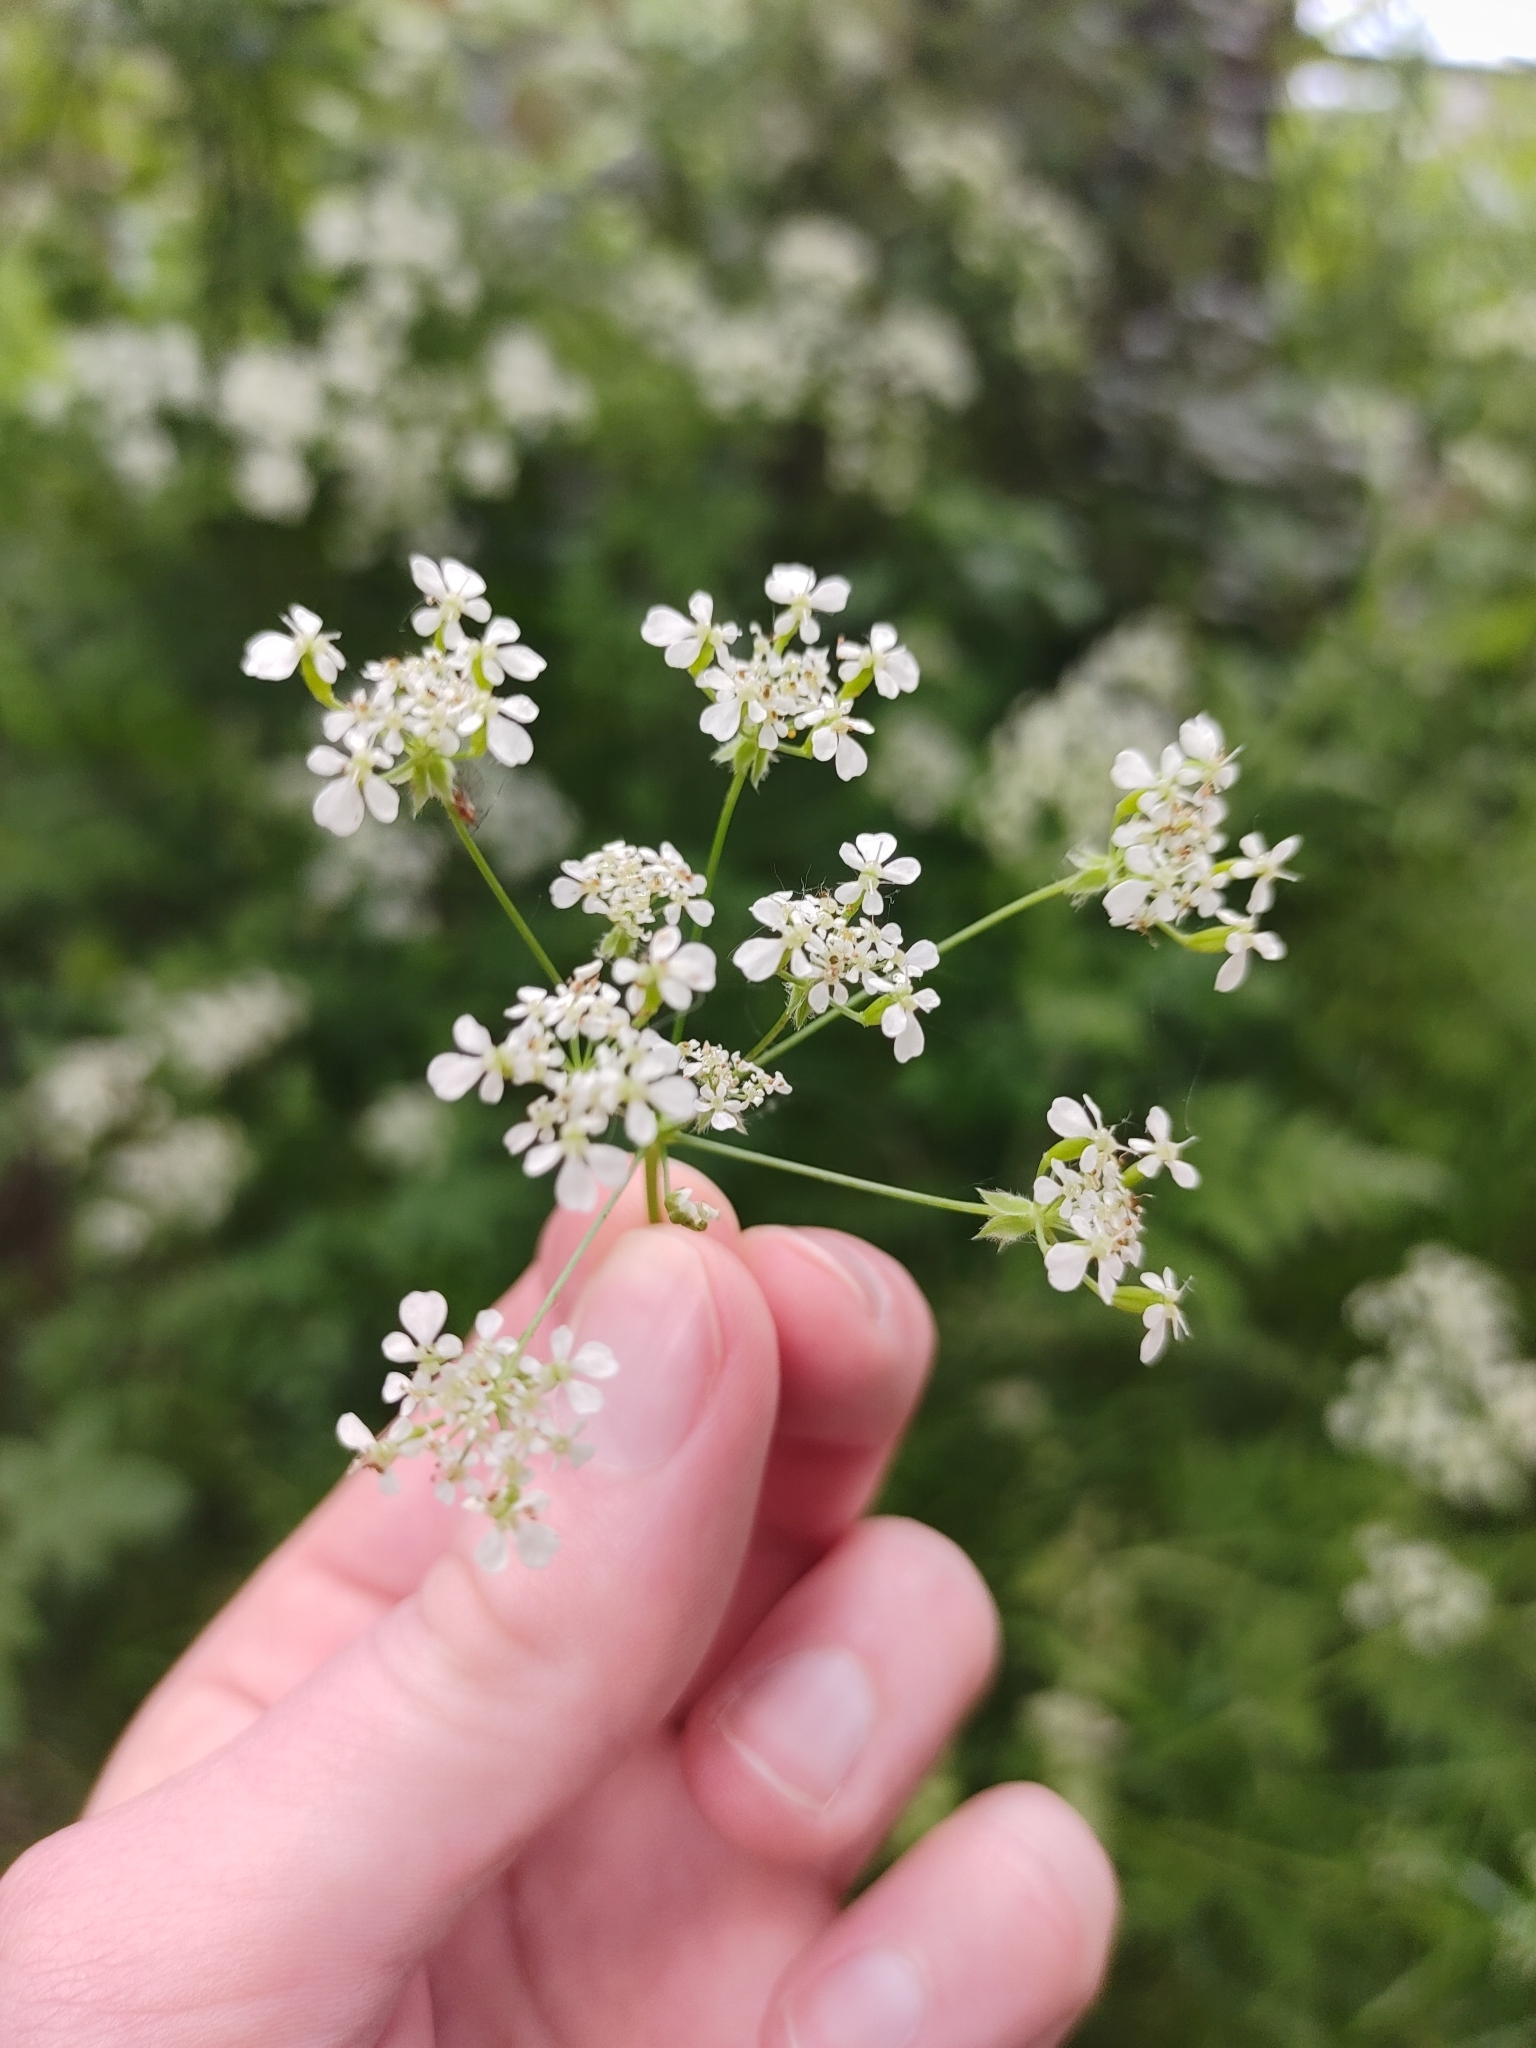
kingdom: Plantae
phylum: Tracheophyta
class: Magnoliopsida
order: Apiales
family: Apiaceae
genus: Anthriscus
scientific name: Anthriscus sylvestris
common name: Cow parsley
